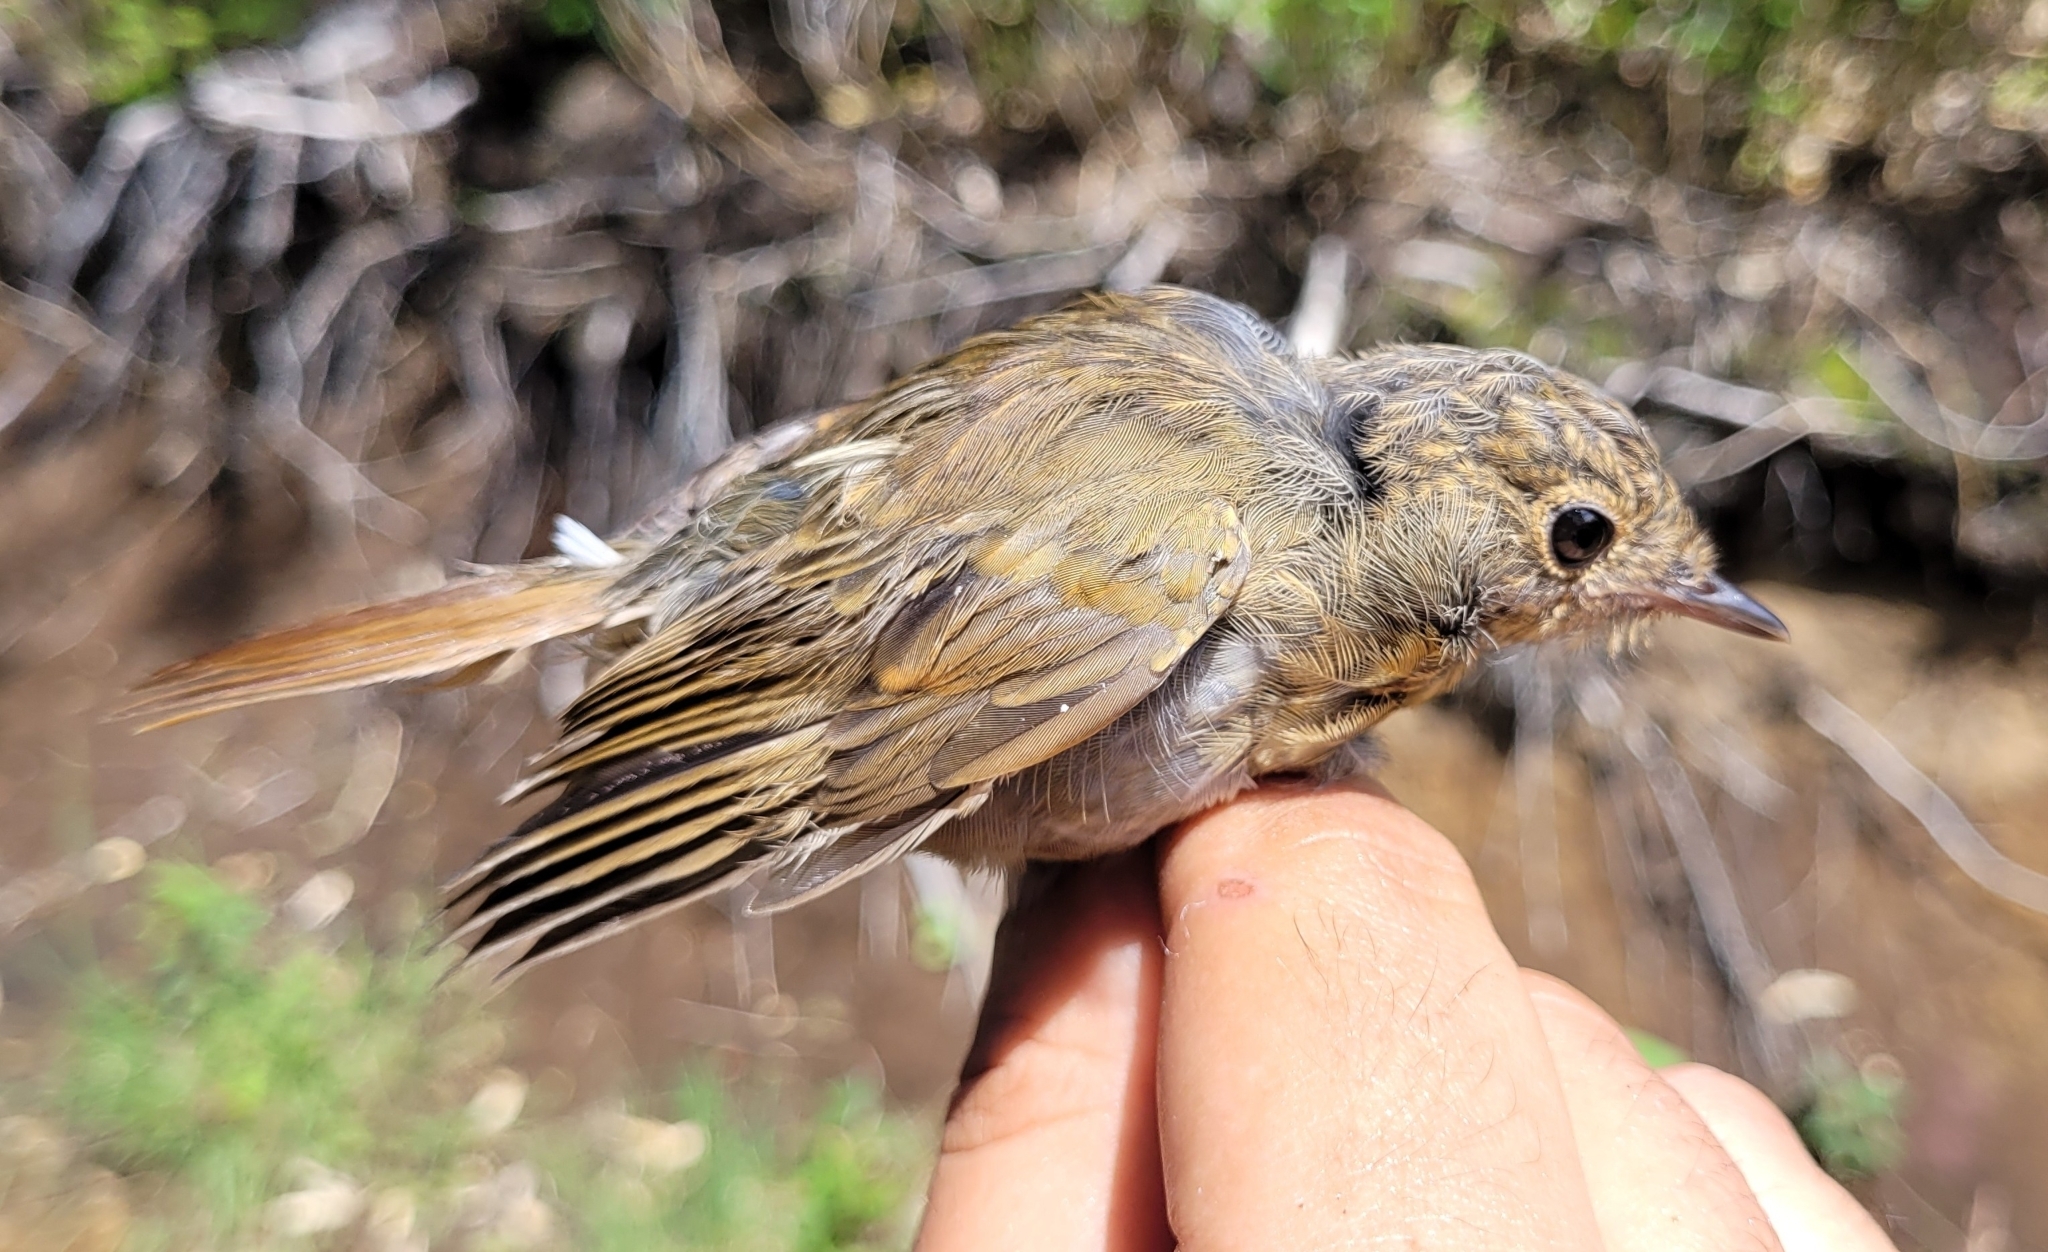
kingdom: Animalia
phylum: Chordata
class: Aves
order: Passeriformes
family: Muscicapidae
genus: Erithacus
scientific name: Erithacus akahige
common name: Japanese robin
